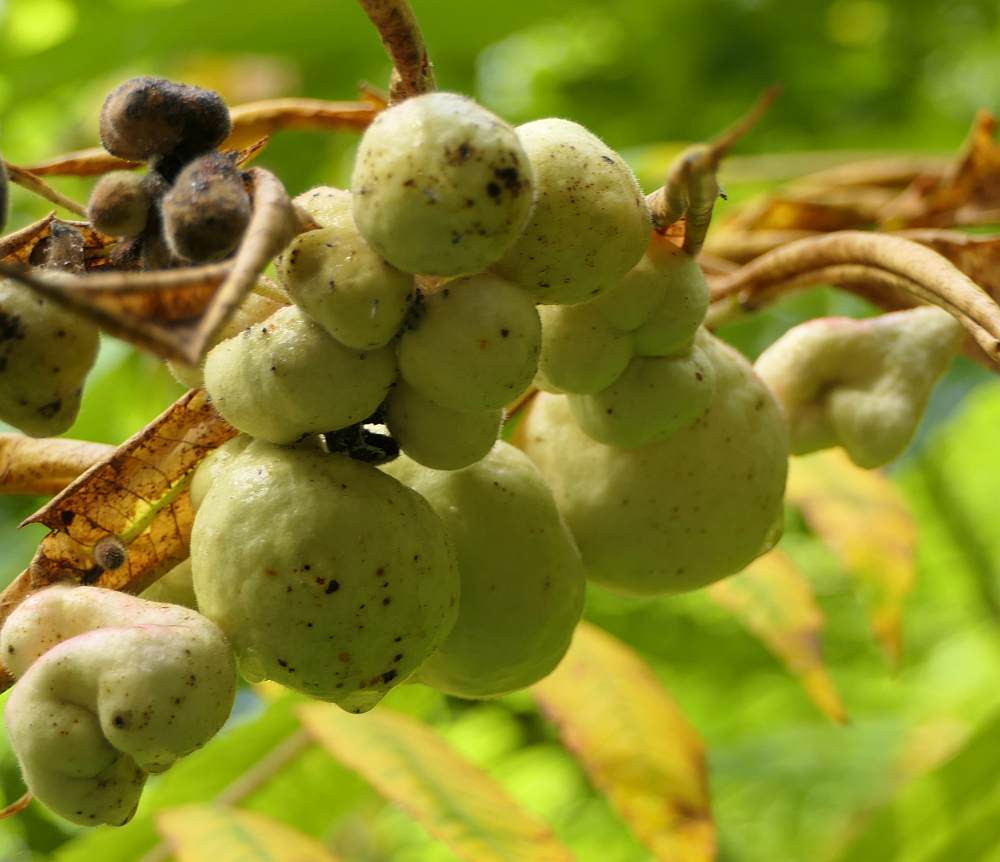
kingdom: Animalia
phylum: Arthropoda
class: Insecta
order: Hemiptera
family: Aphididae
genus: Melaphis
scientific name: Melaphis rhois
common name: Sumac gall aphid
